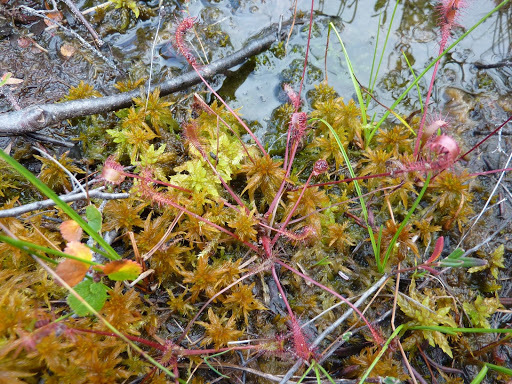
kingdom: Plantae
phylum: Tracheophyta
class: Magnoliopsida
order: Caryophyllales
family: Droseraceae
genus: Drosera
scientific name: Drosera anglica
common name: Great sundew
